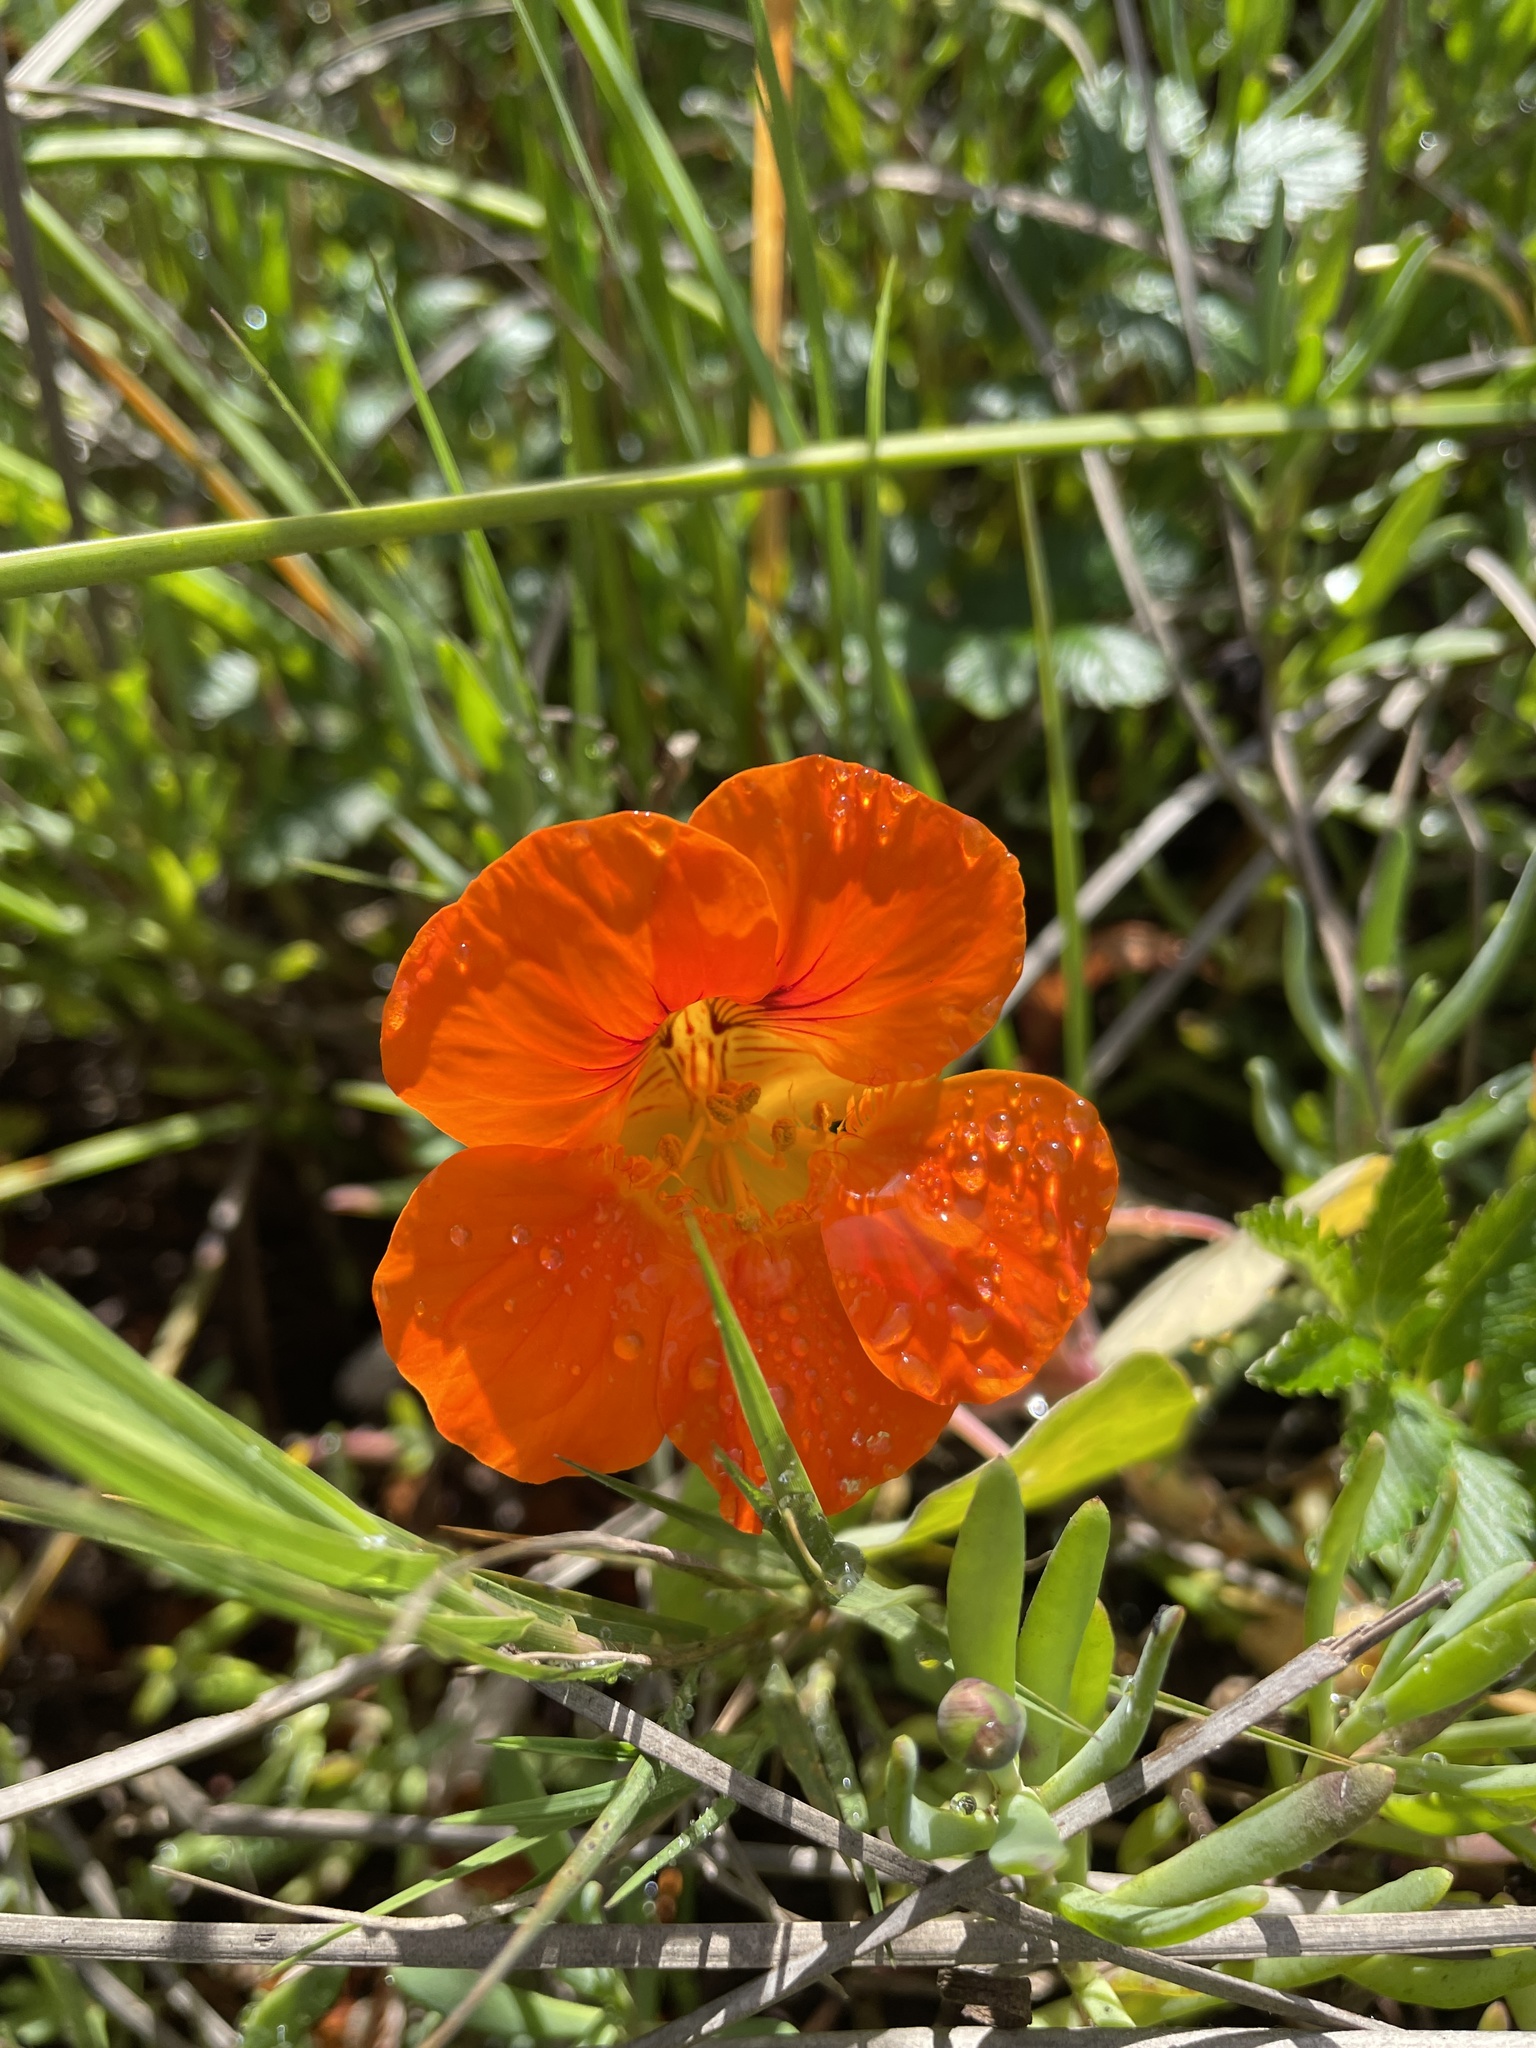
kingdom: Plantae
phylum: Tracheophyta
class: Magnoliopsida
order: Brassicales
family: Tropaeolaceae
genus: Tropaeolum
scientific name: Tropaeolum majus
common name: Nasturtium
